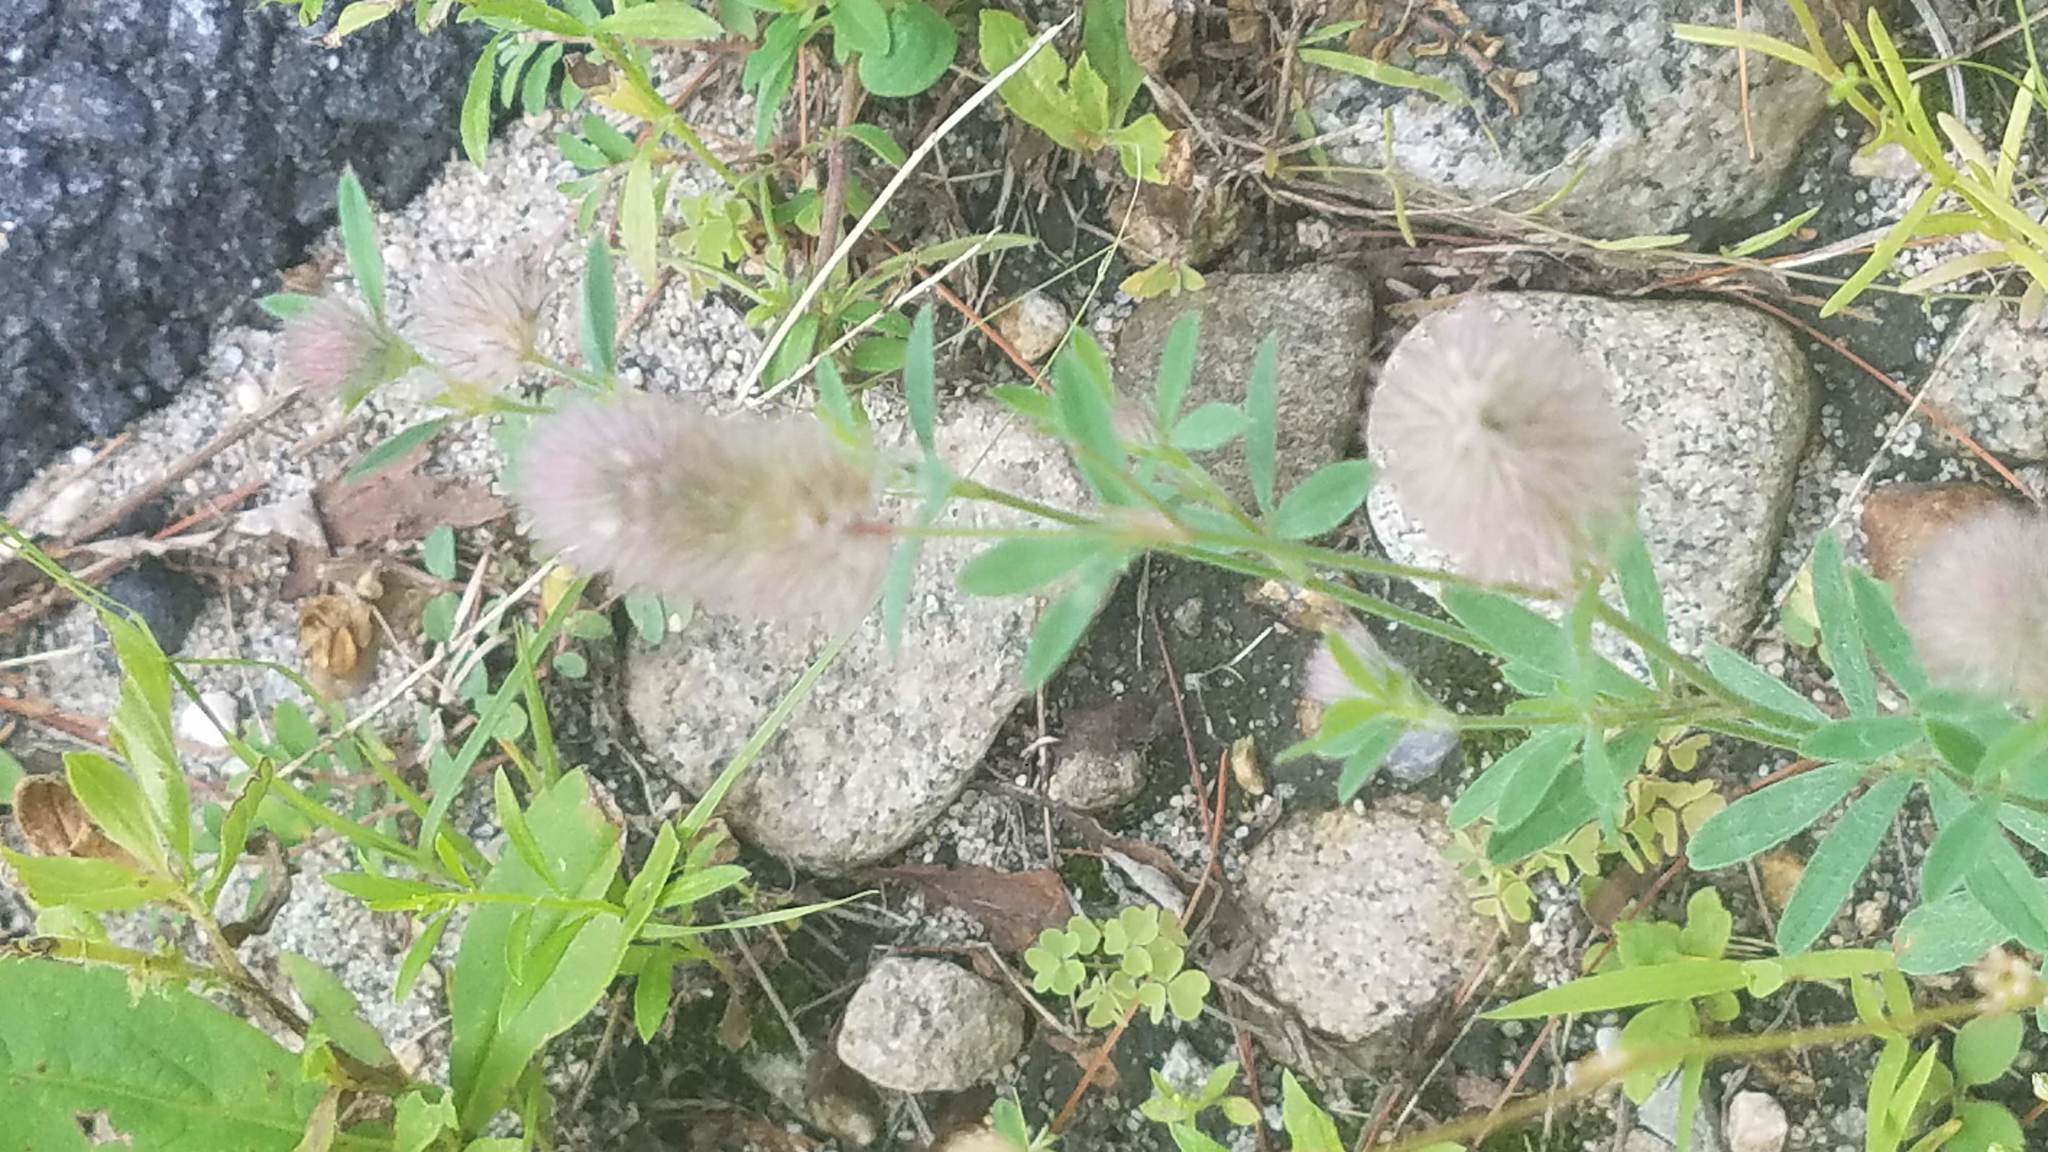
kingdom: Plantae
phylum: Tracheophyta
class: Magnoliopsida
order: Fabales
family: Fabaceae
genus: Trifolium
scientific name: Trifolium arvense
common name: Hare's-foot clover
